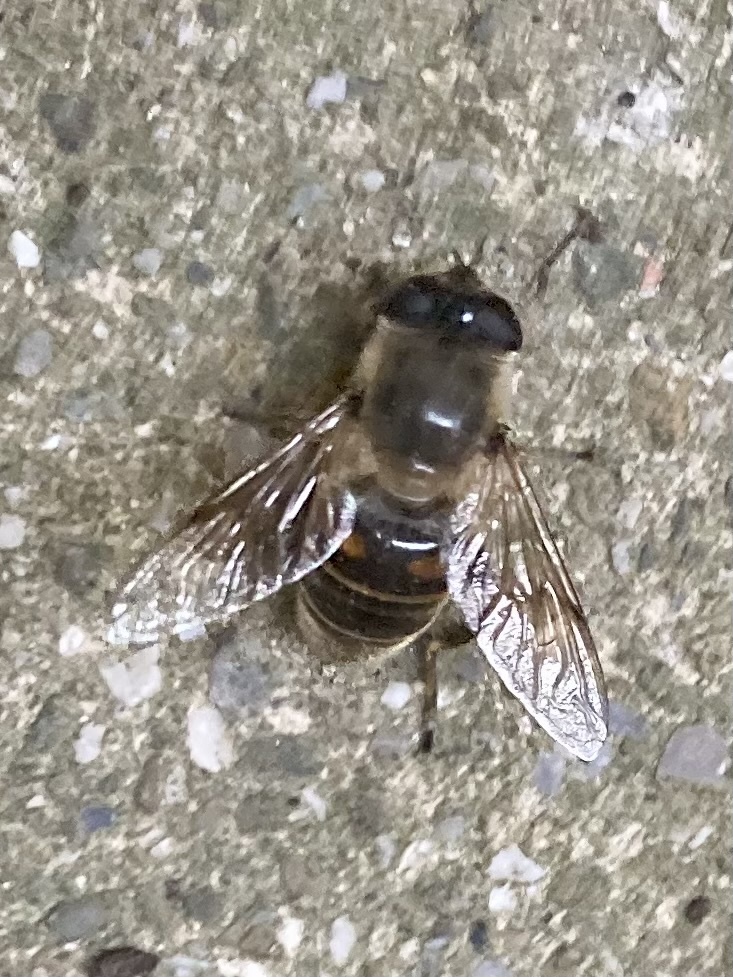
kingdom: Animalia
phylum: Arthropoda
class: Insecta
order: Diptera
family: Syrphidae
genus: Eristalis
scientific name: Eristalis tenax
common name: Drone fly
